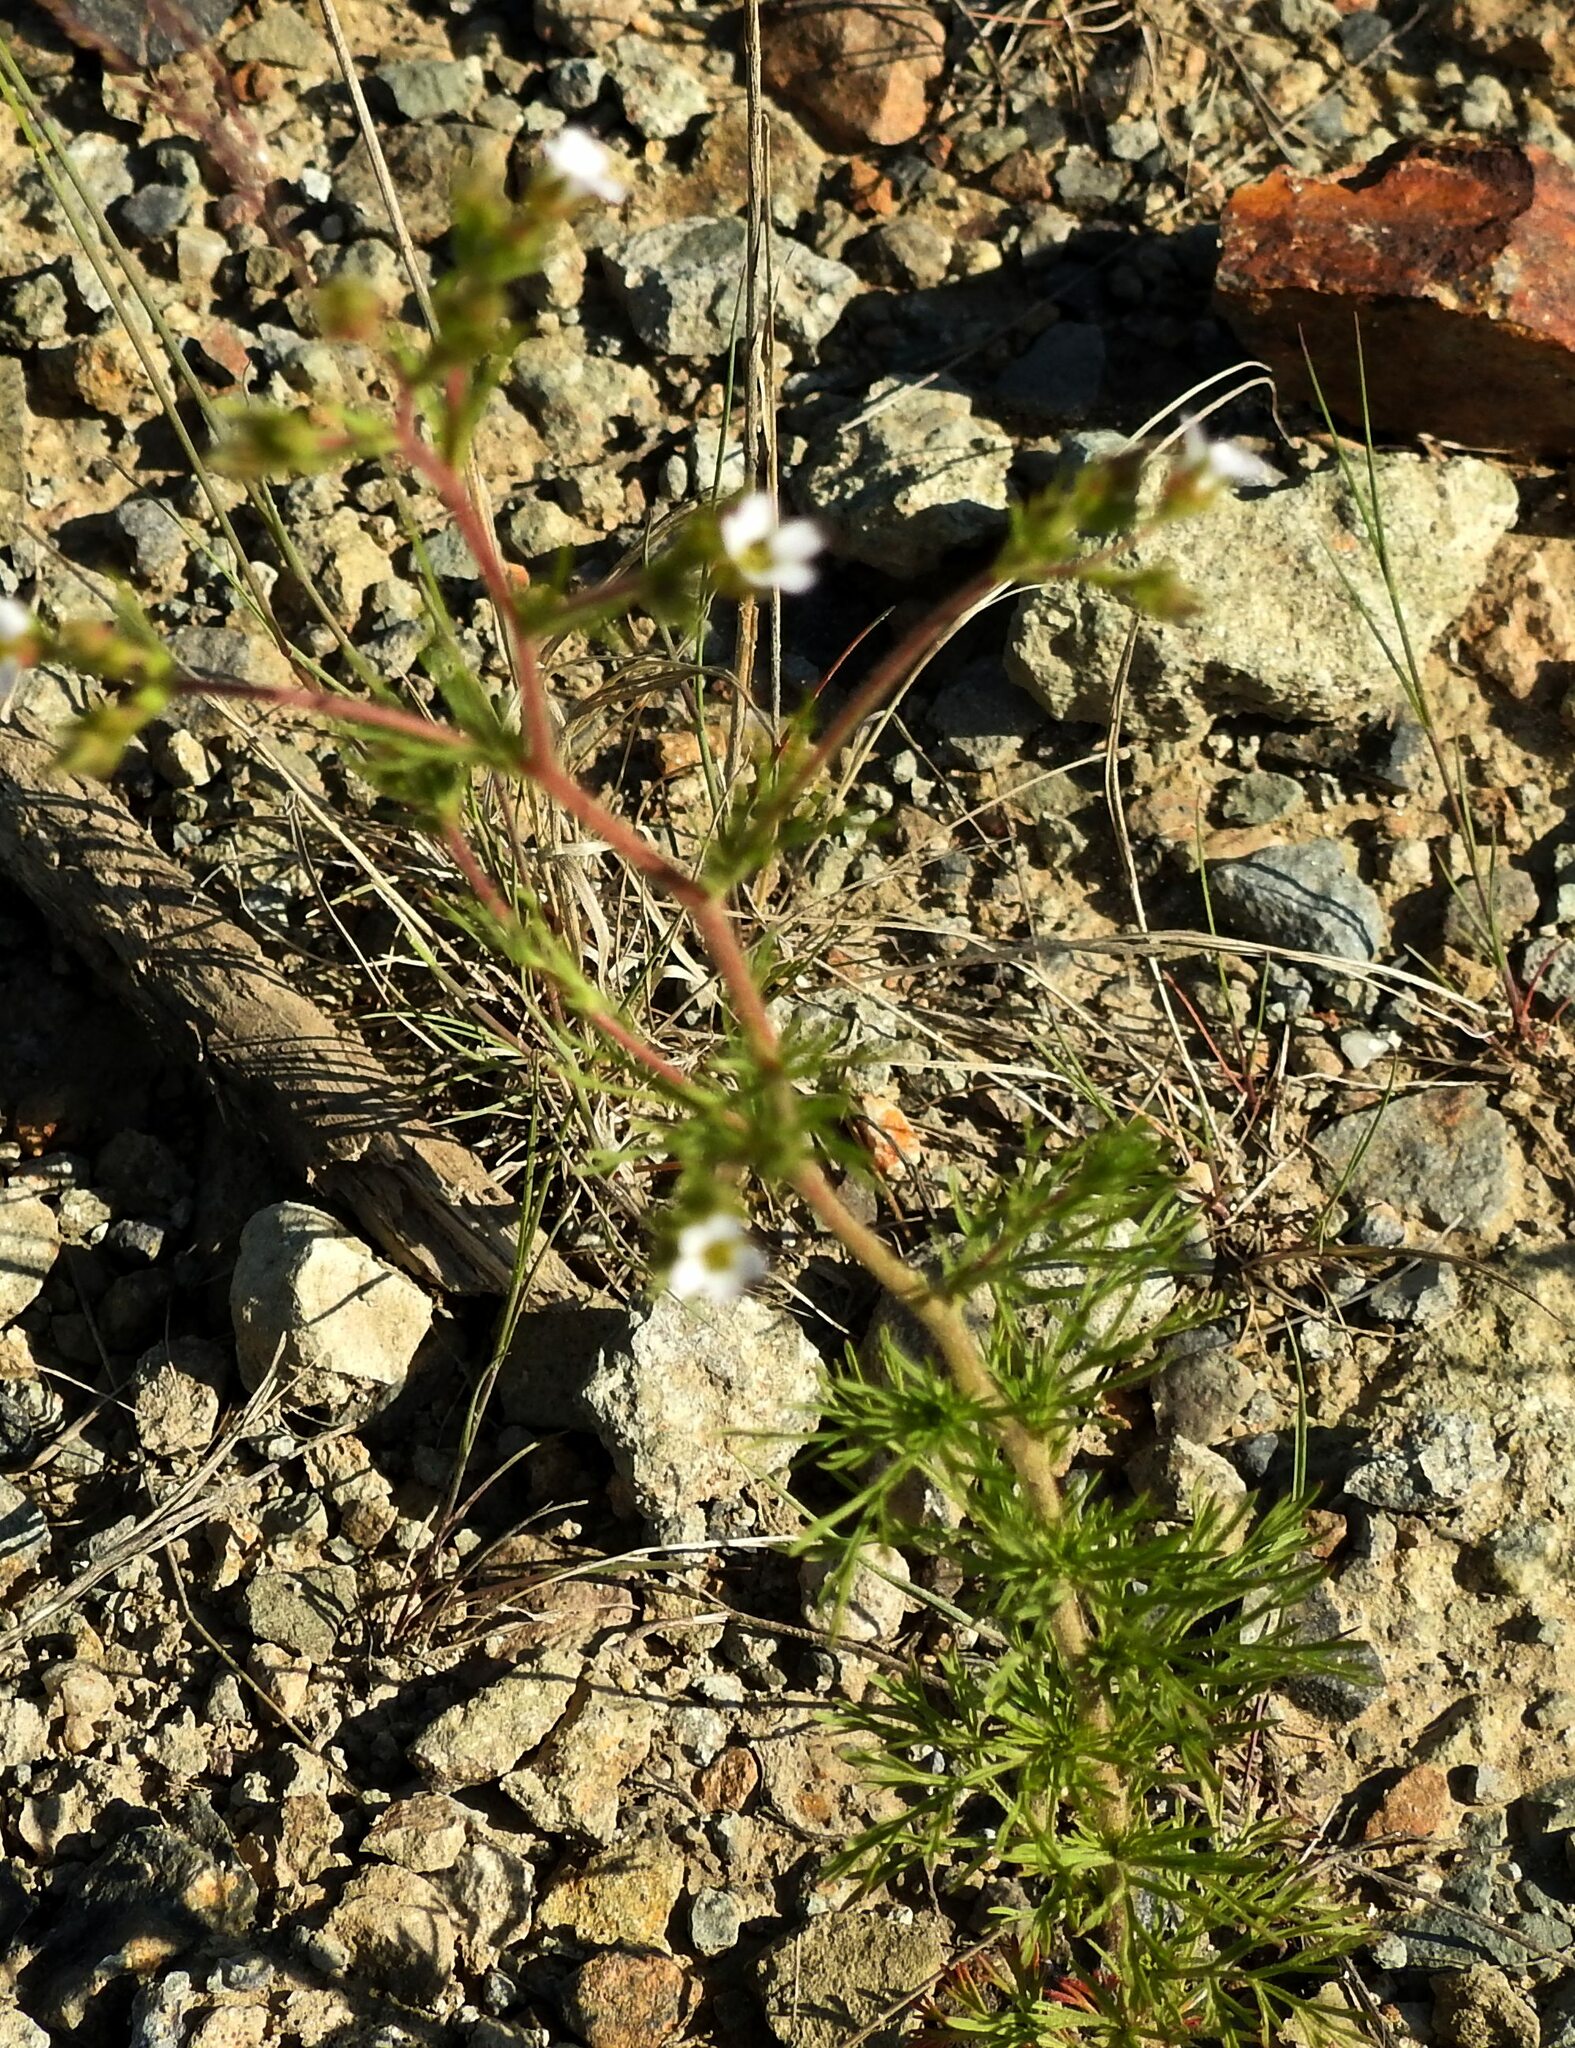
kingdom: Plantae
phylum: Tracheophyta
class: Magnoliopsida
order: Rosales
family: Rosaceae
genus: Chamaerhodos
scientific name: Chamaerhodos erecta
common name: American chamaerhodos
